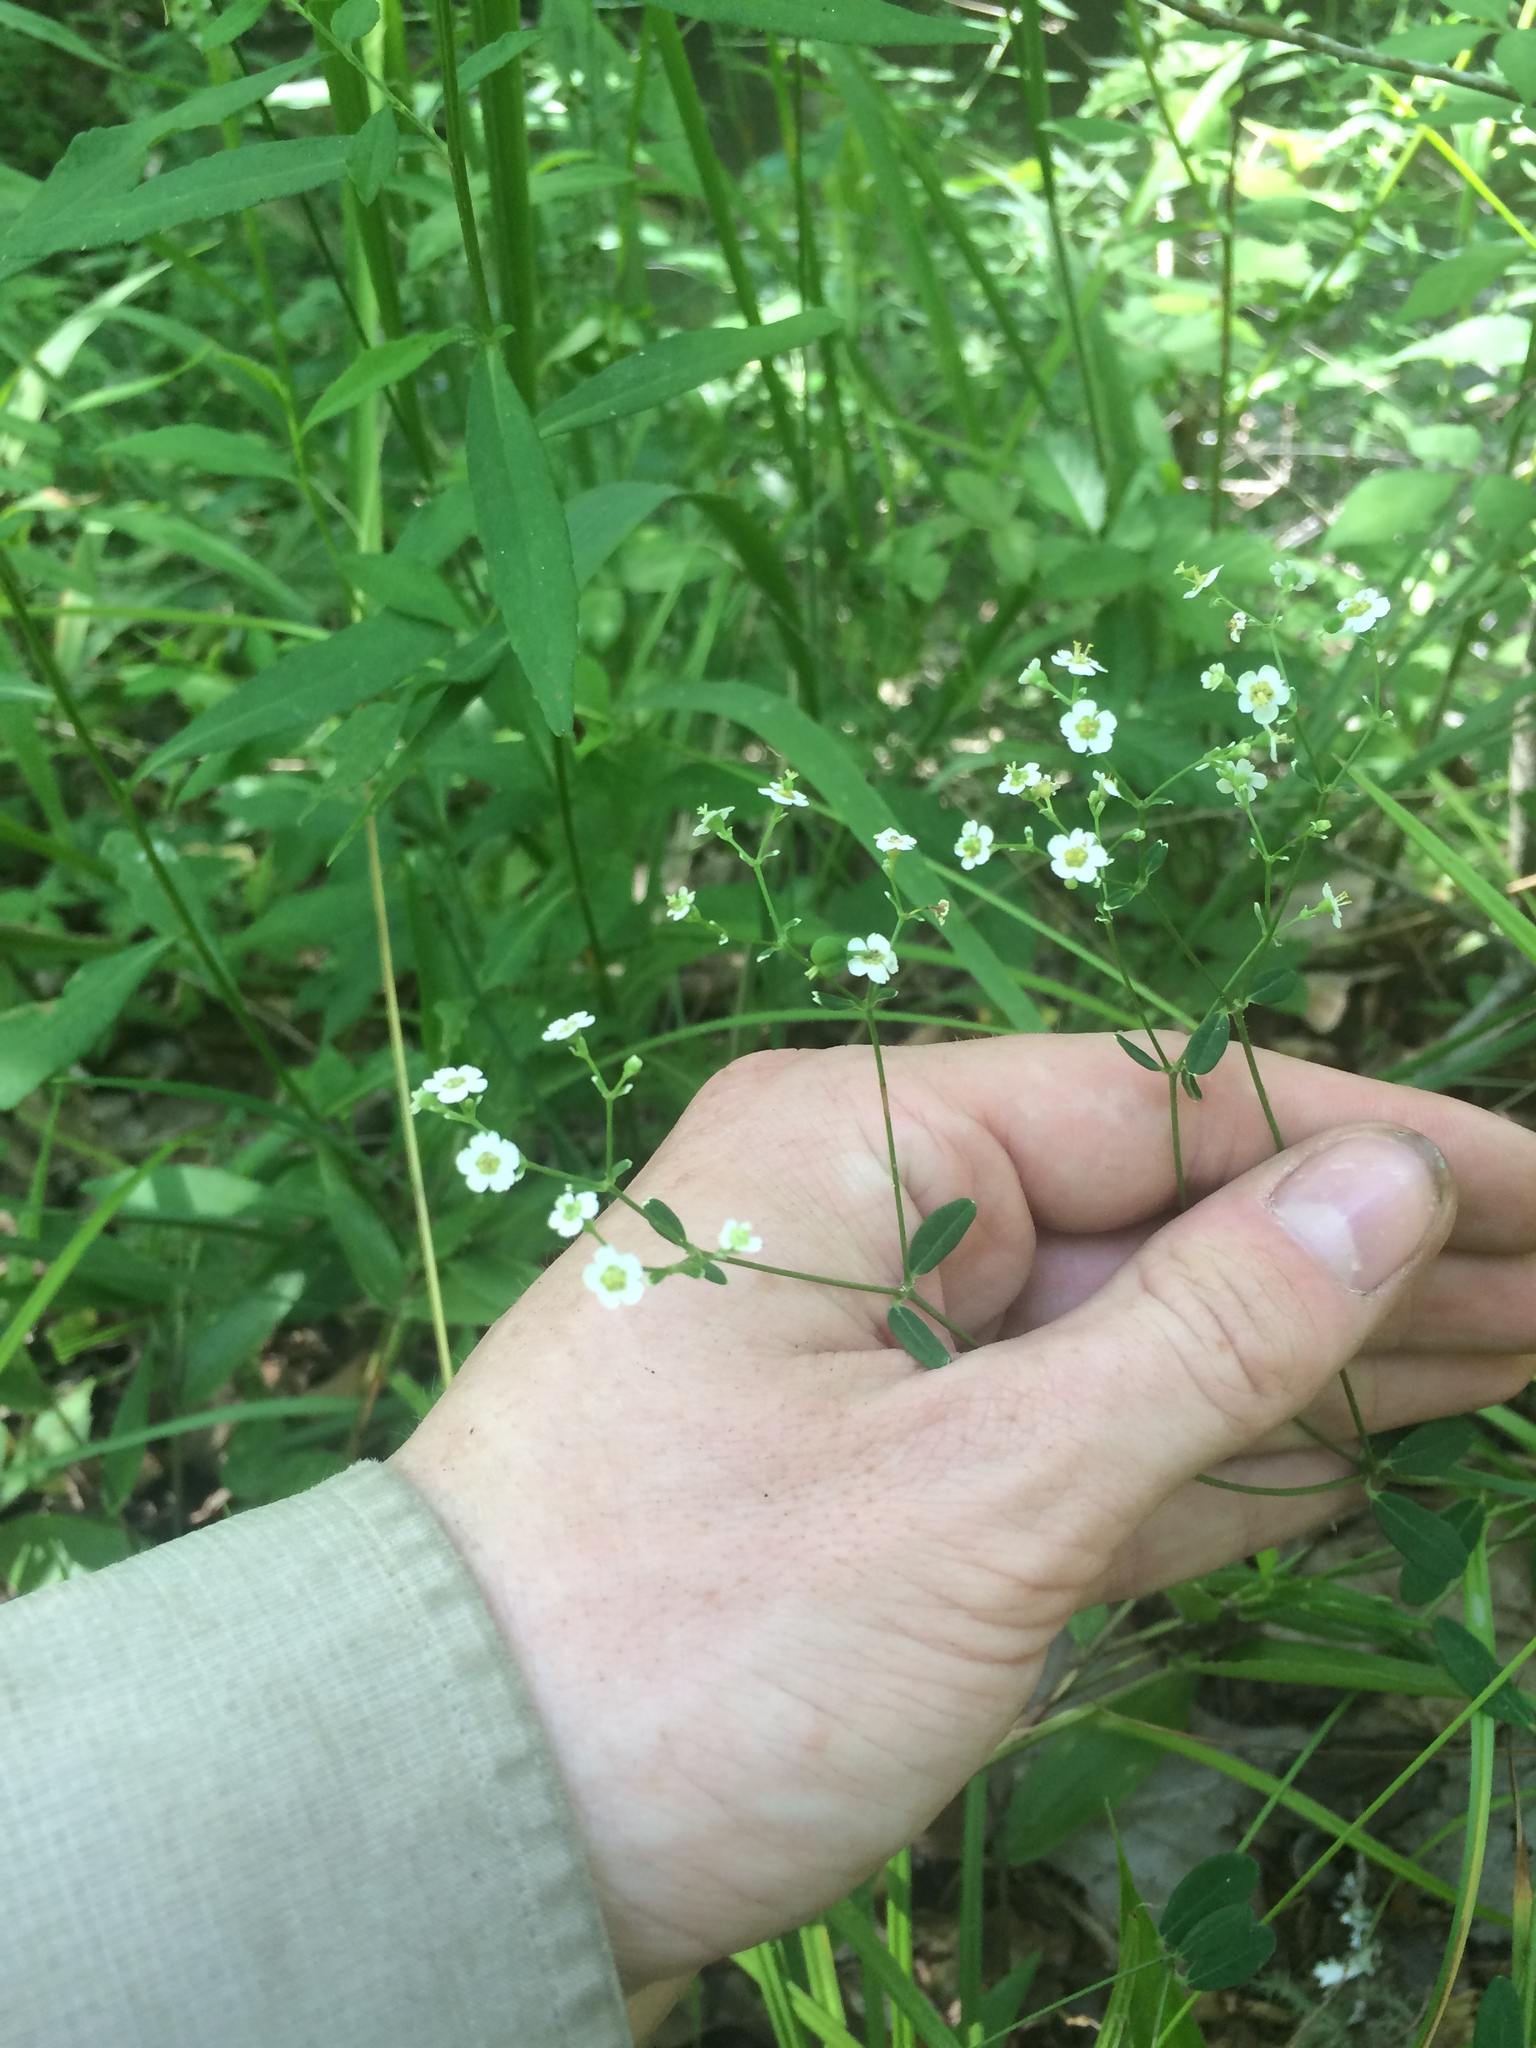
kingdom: Plantae
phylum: Tracheophyta
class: Magnoliopsida
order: Malpighiales
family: Euphorbiaceae
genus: Euphorbia
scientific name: Euphorbia corollata
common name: Flowering spurge
